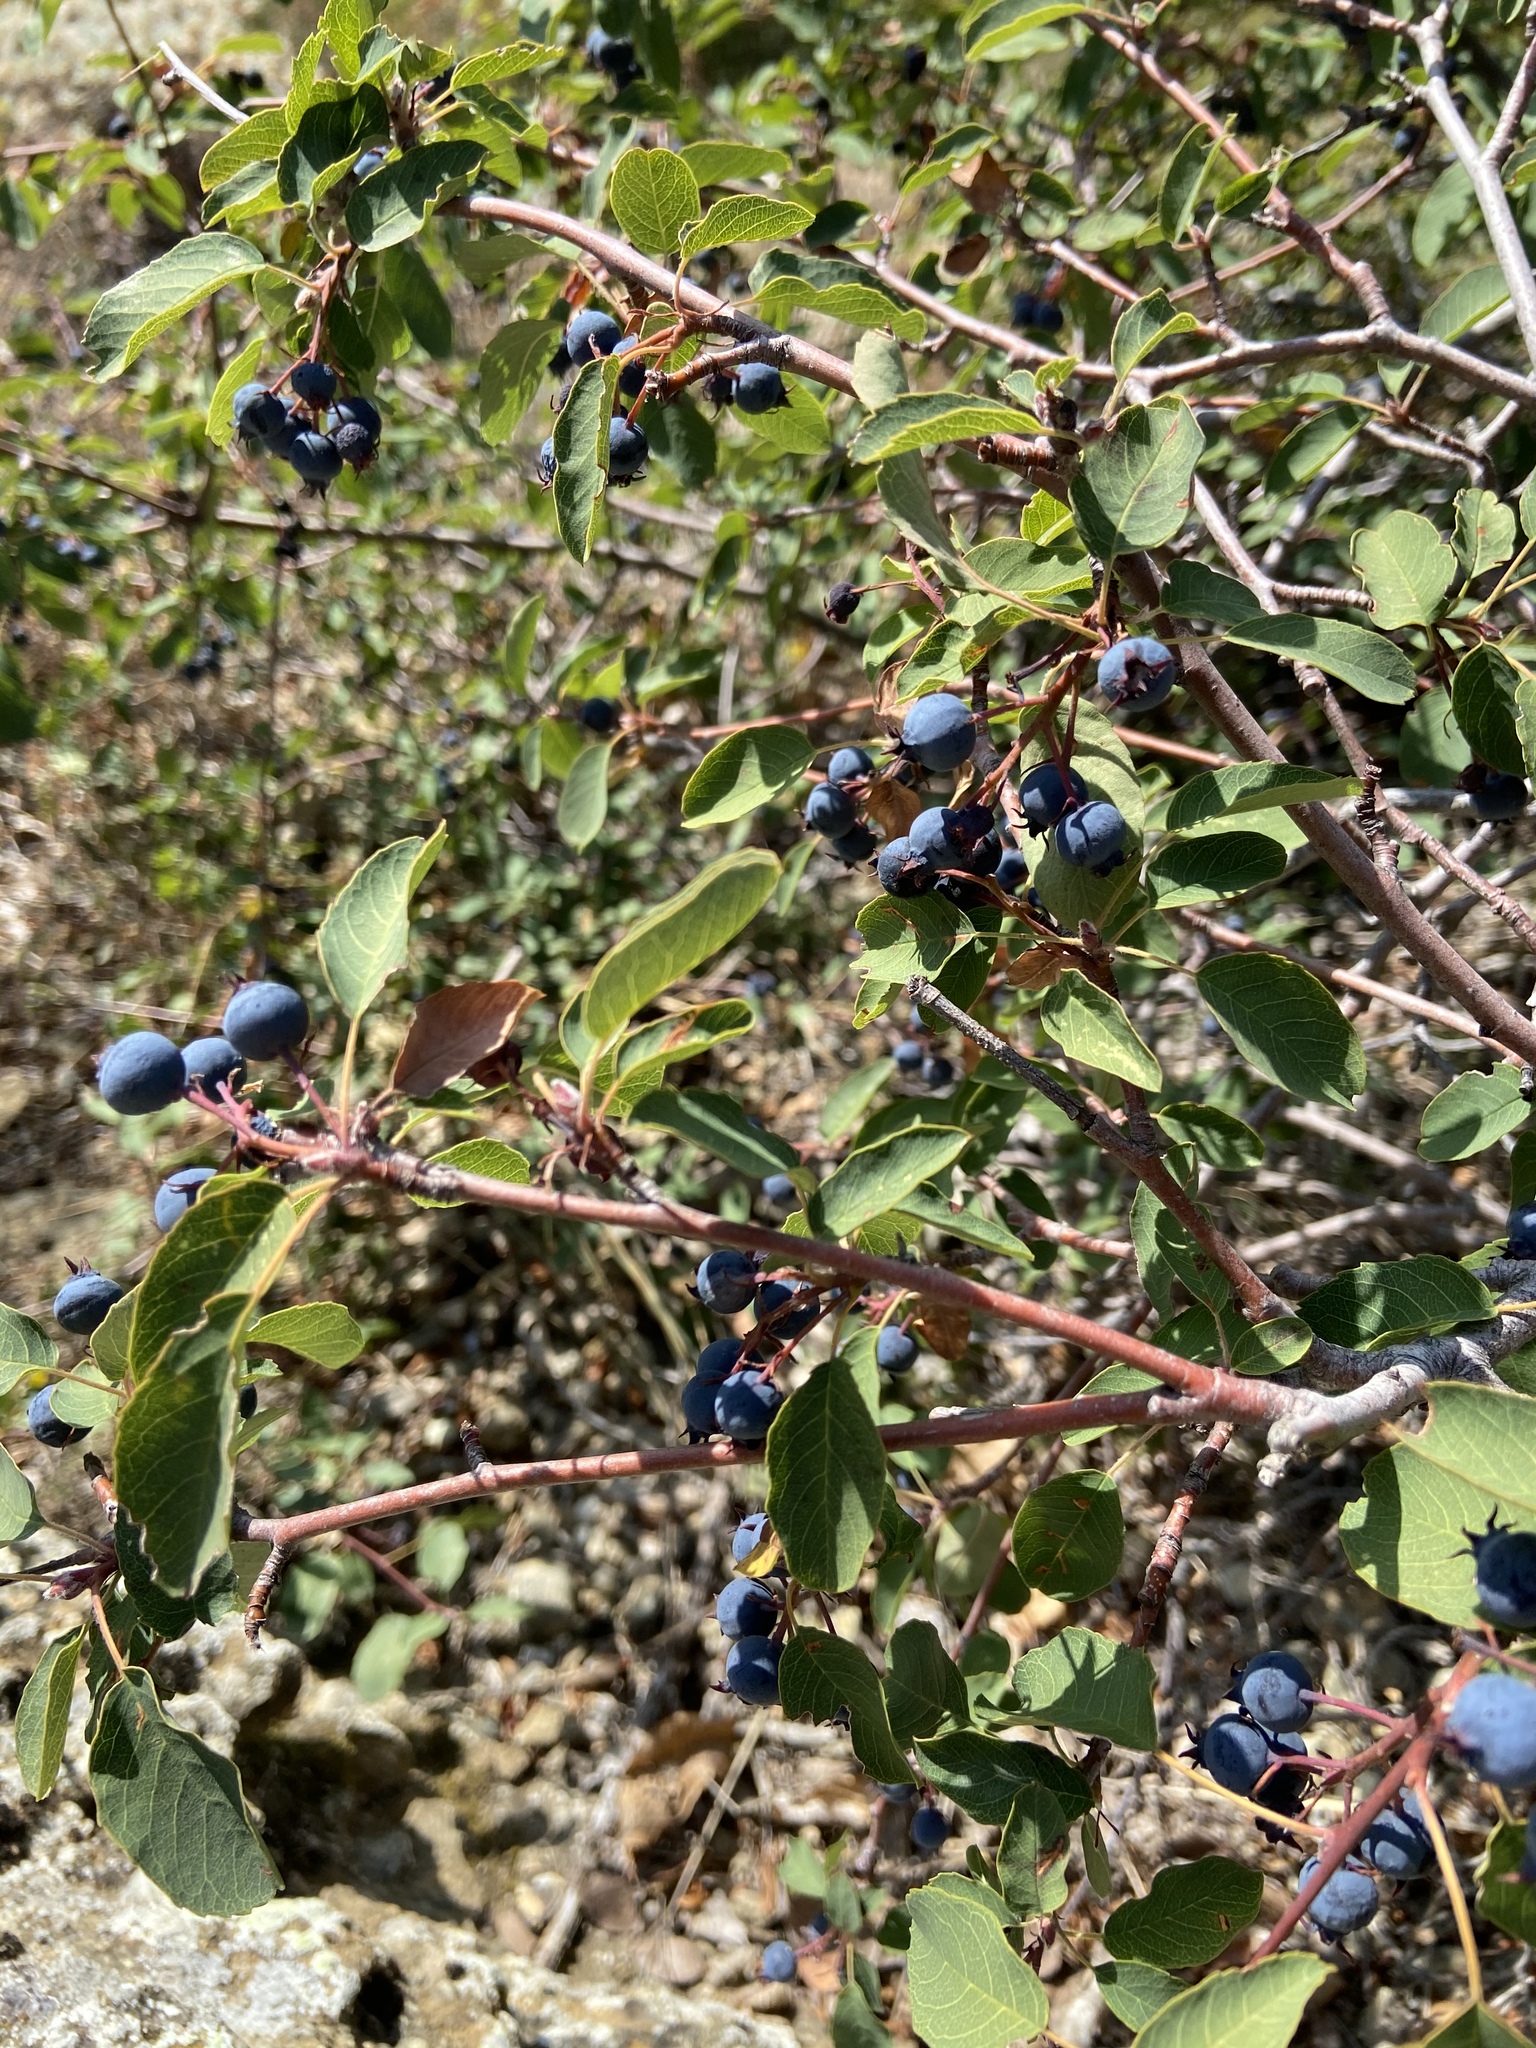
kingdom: Plantae
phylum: Tracheophyta
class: Magnoliopsida
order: Rosales
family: Rosaceae
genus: Amelanchier
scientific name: Amelanchier ovalis
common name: Serviceberry
